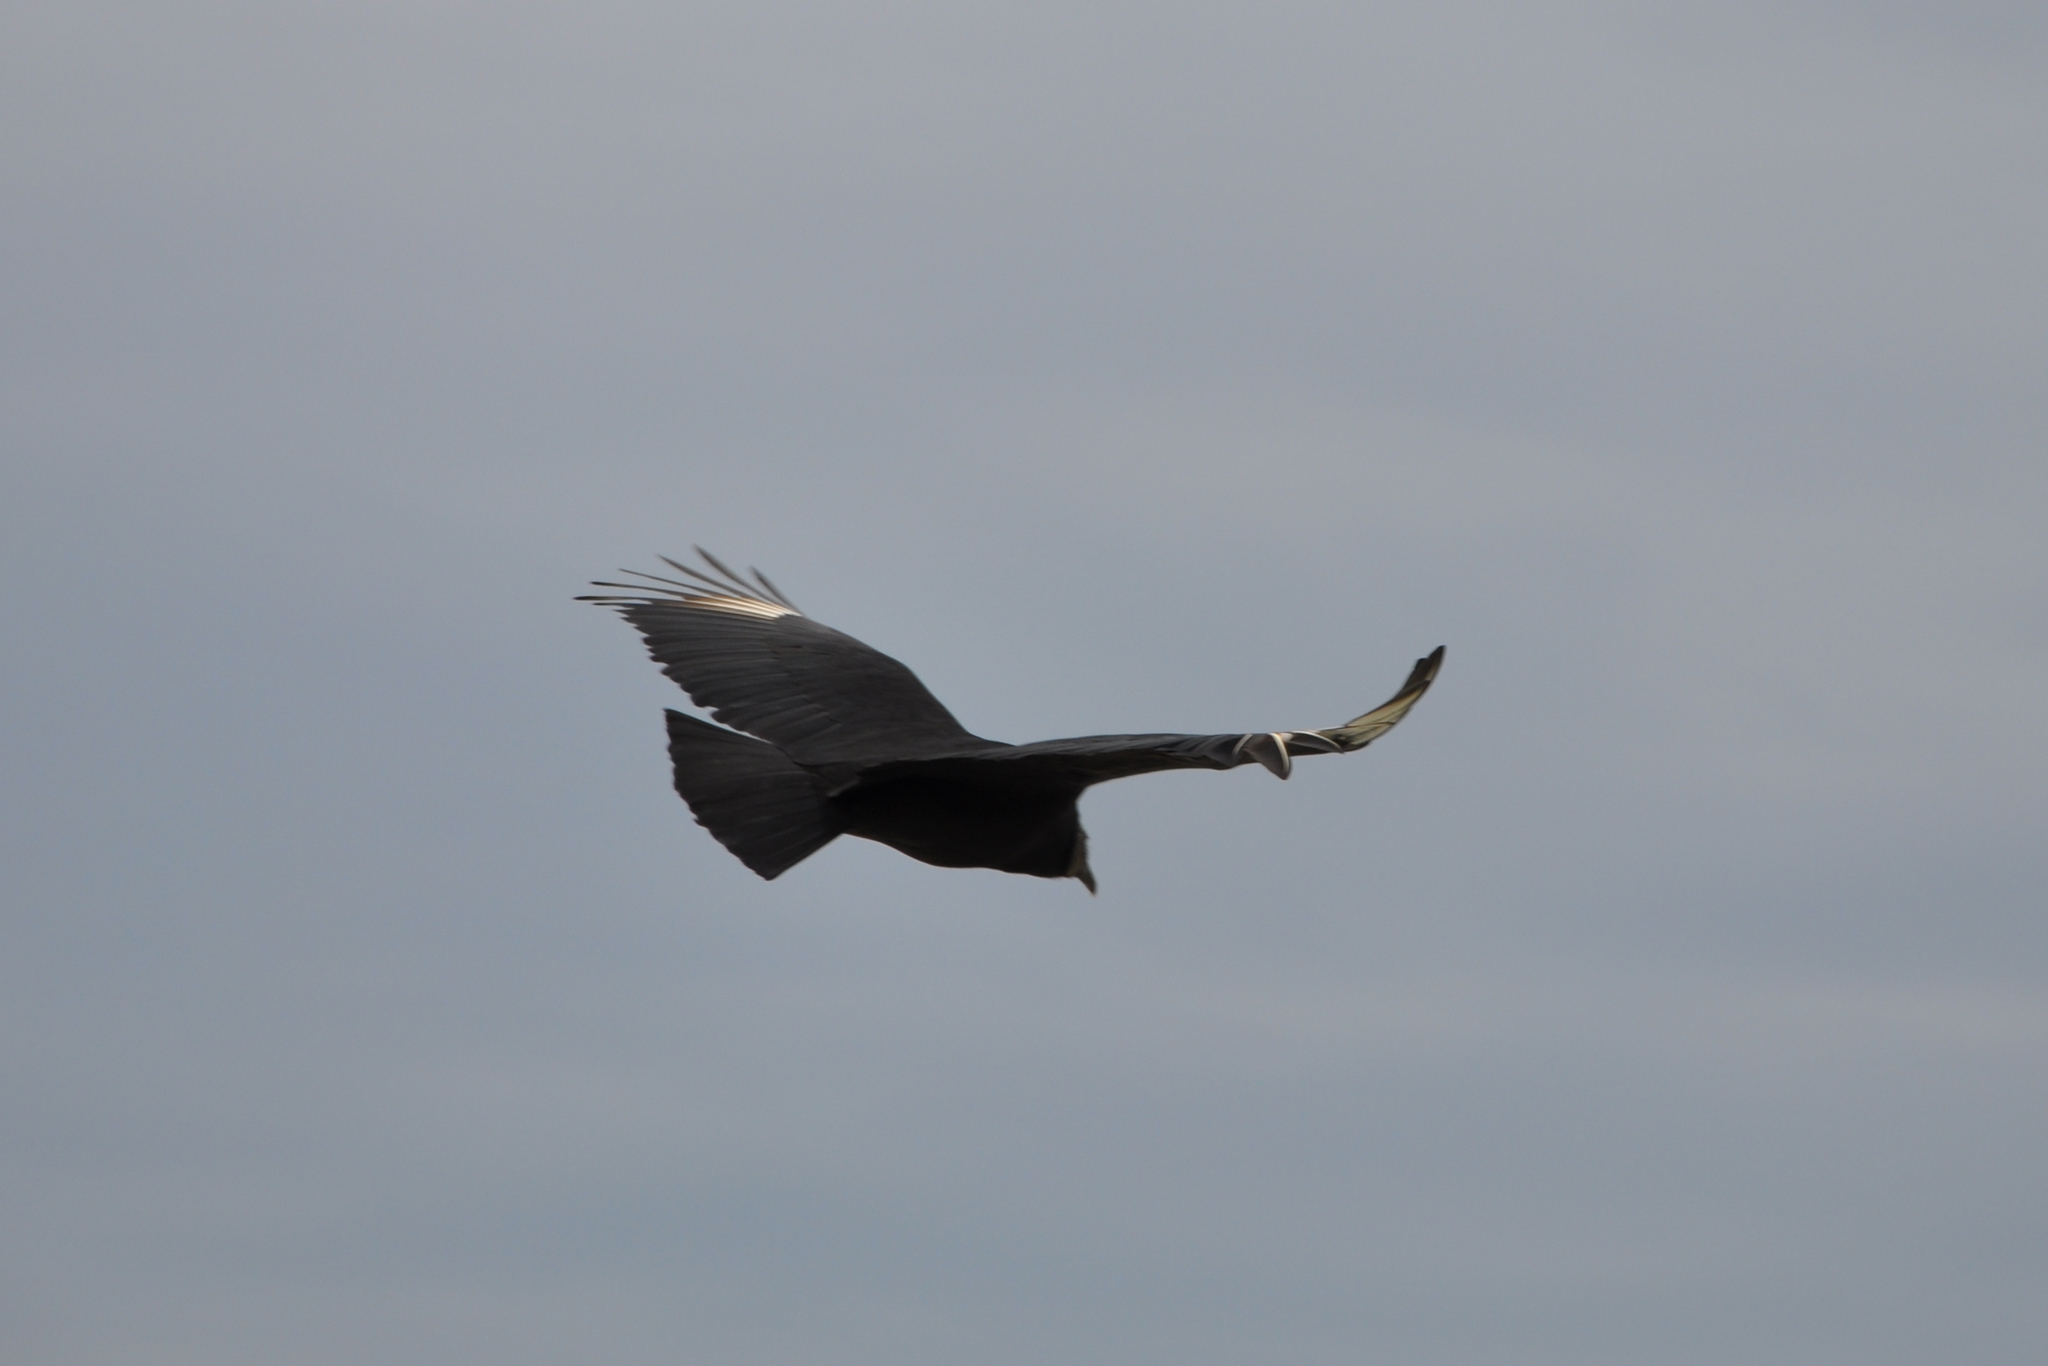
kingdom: Animalia
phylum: Chordata
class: Aves
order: Accipitriformes
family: Cathartidae
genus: Coragyps
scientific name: Coragyps atratus
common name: Black vulture
